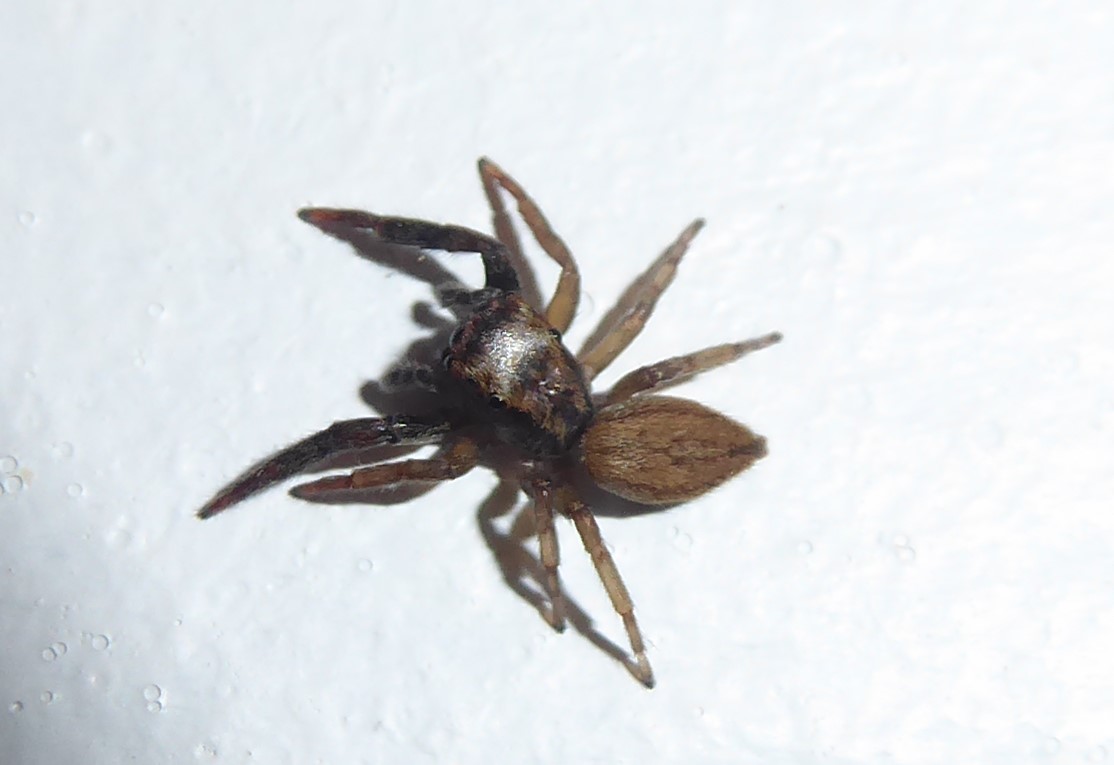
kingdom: Animalia
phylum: Arthropoda
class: Arachnida
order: Araneae
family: Salticidae
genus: Trite
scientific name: Trite auricoma
